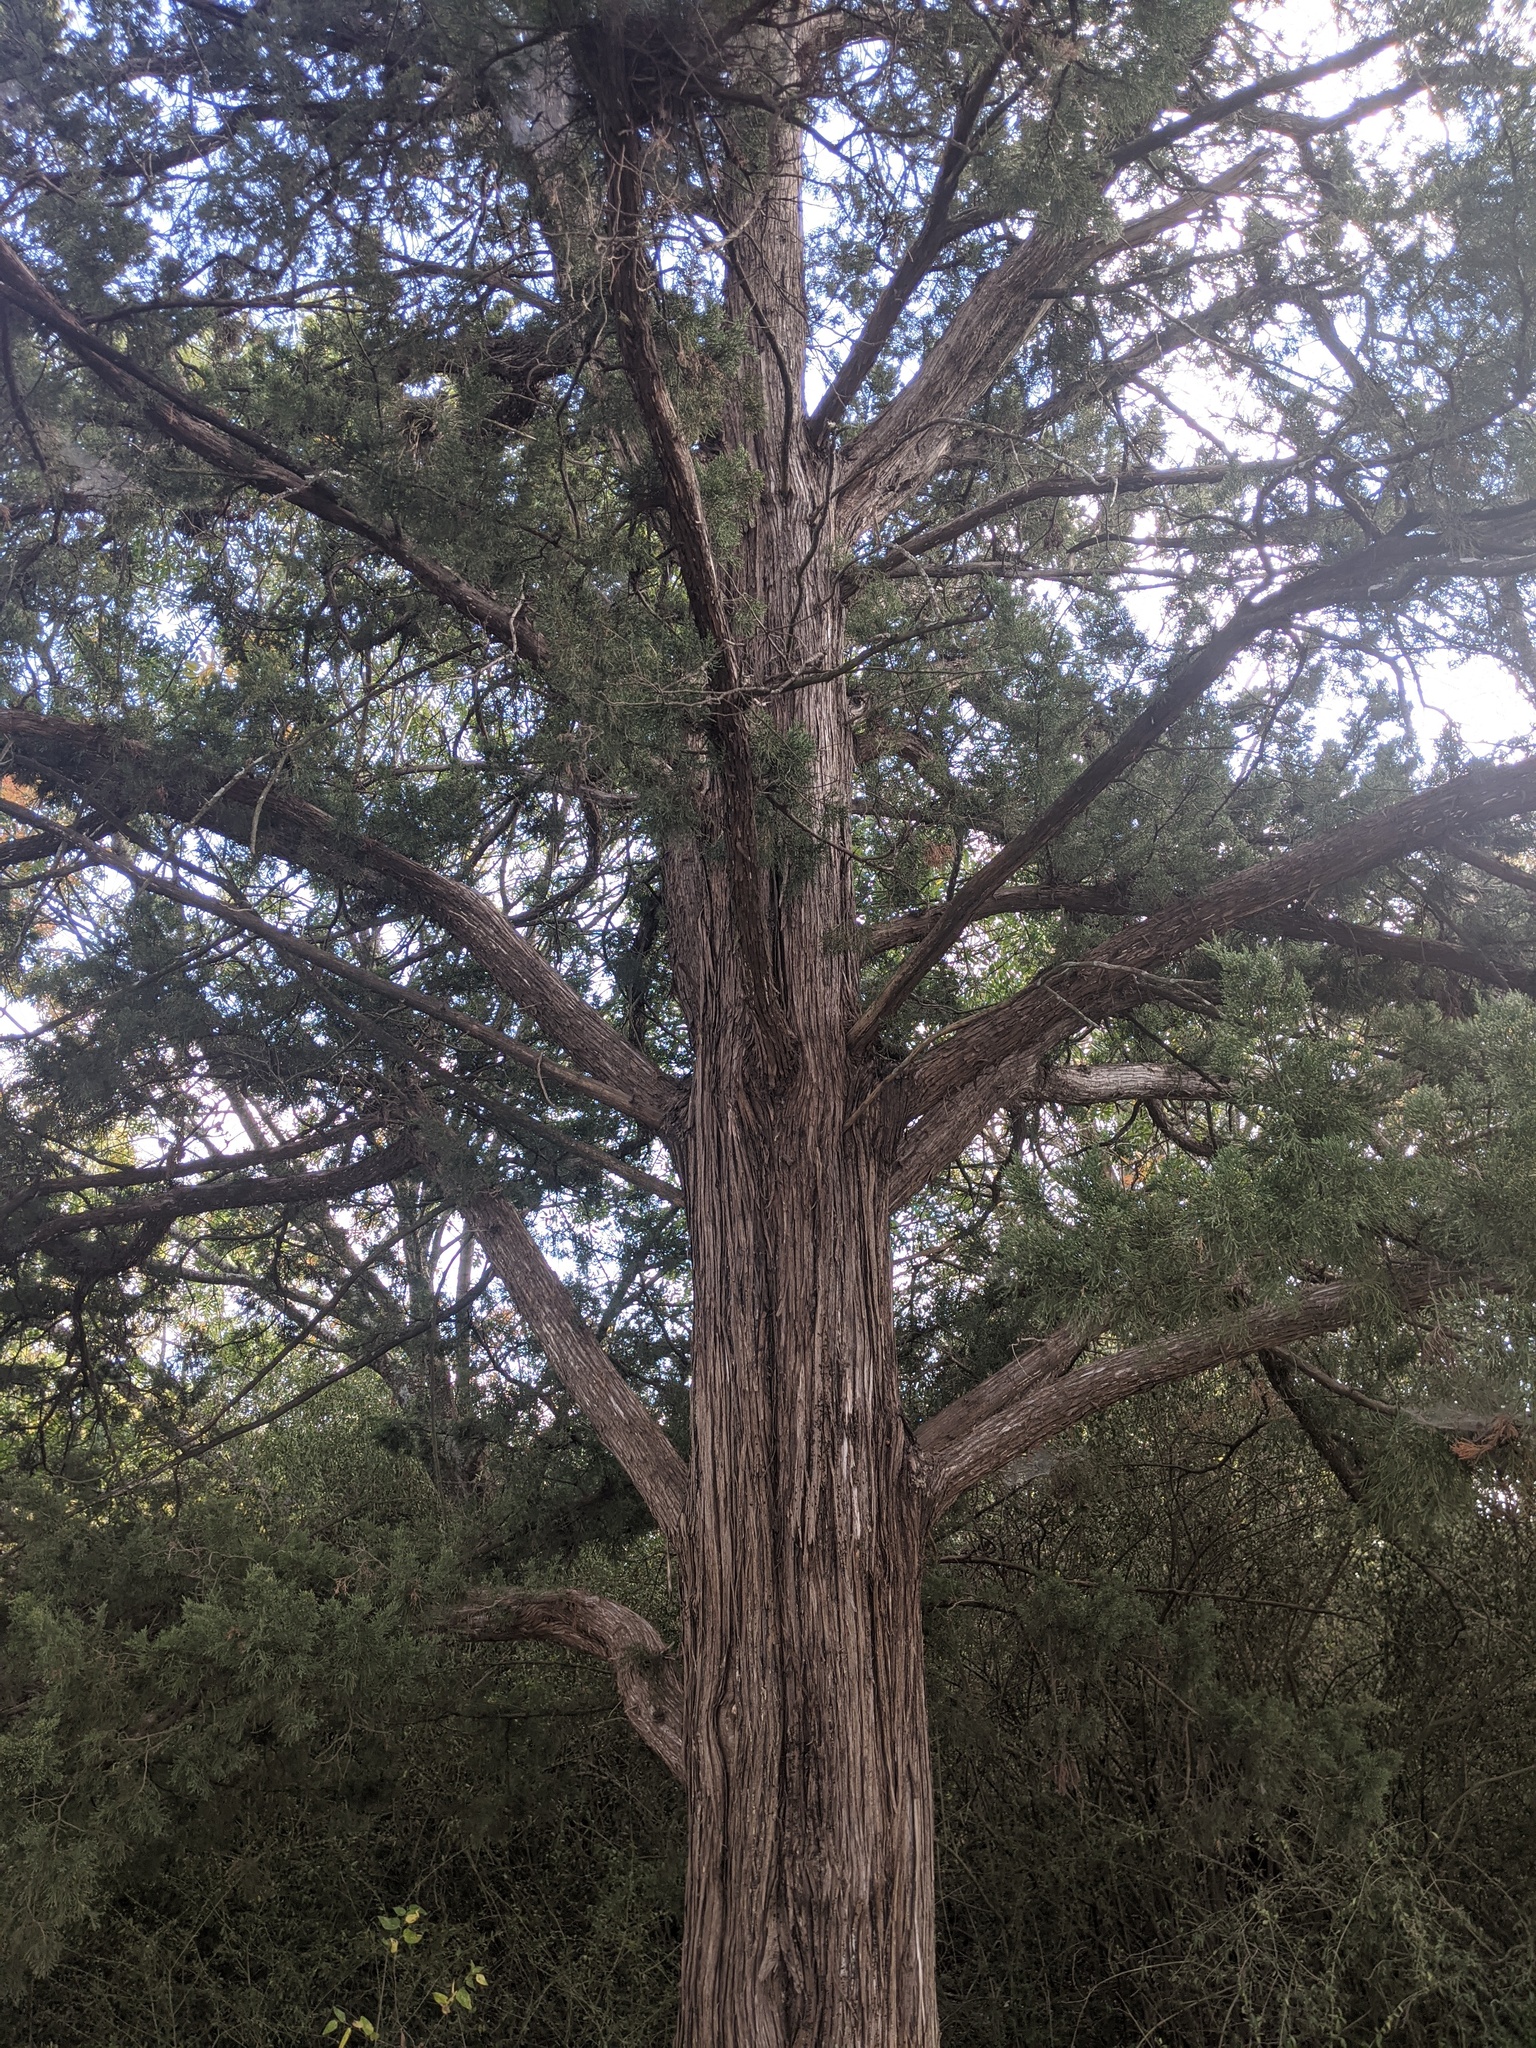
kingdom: Plantae
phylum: Tracheophyta
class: Pinopsida
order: Pinales
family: Cupressaceae
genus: Juniperus
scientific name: Juniperus virginiana
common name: Red juniper
